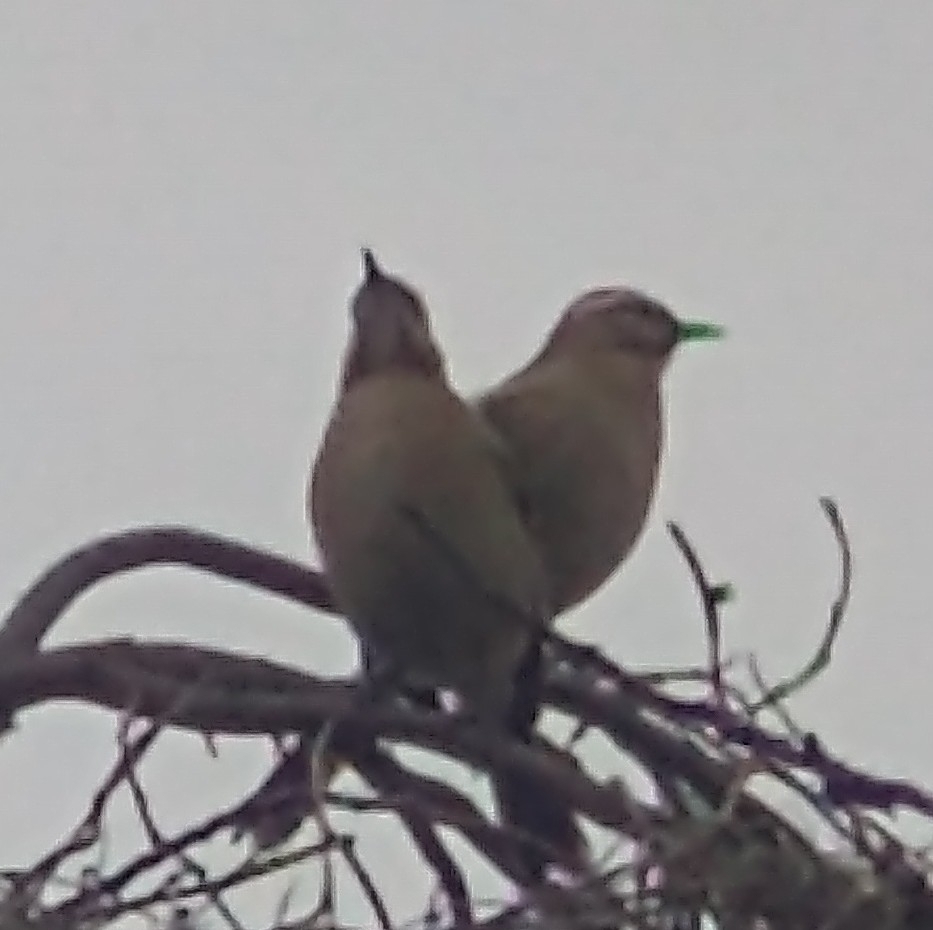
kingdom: Animalia
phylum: Chordata
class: Aves
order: Passeriformes
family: Mimidae
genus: Mimus
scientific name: Mimus thenca
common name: Chilean mockingbird
